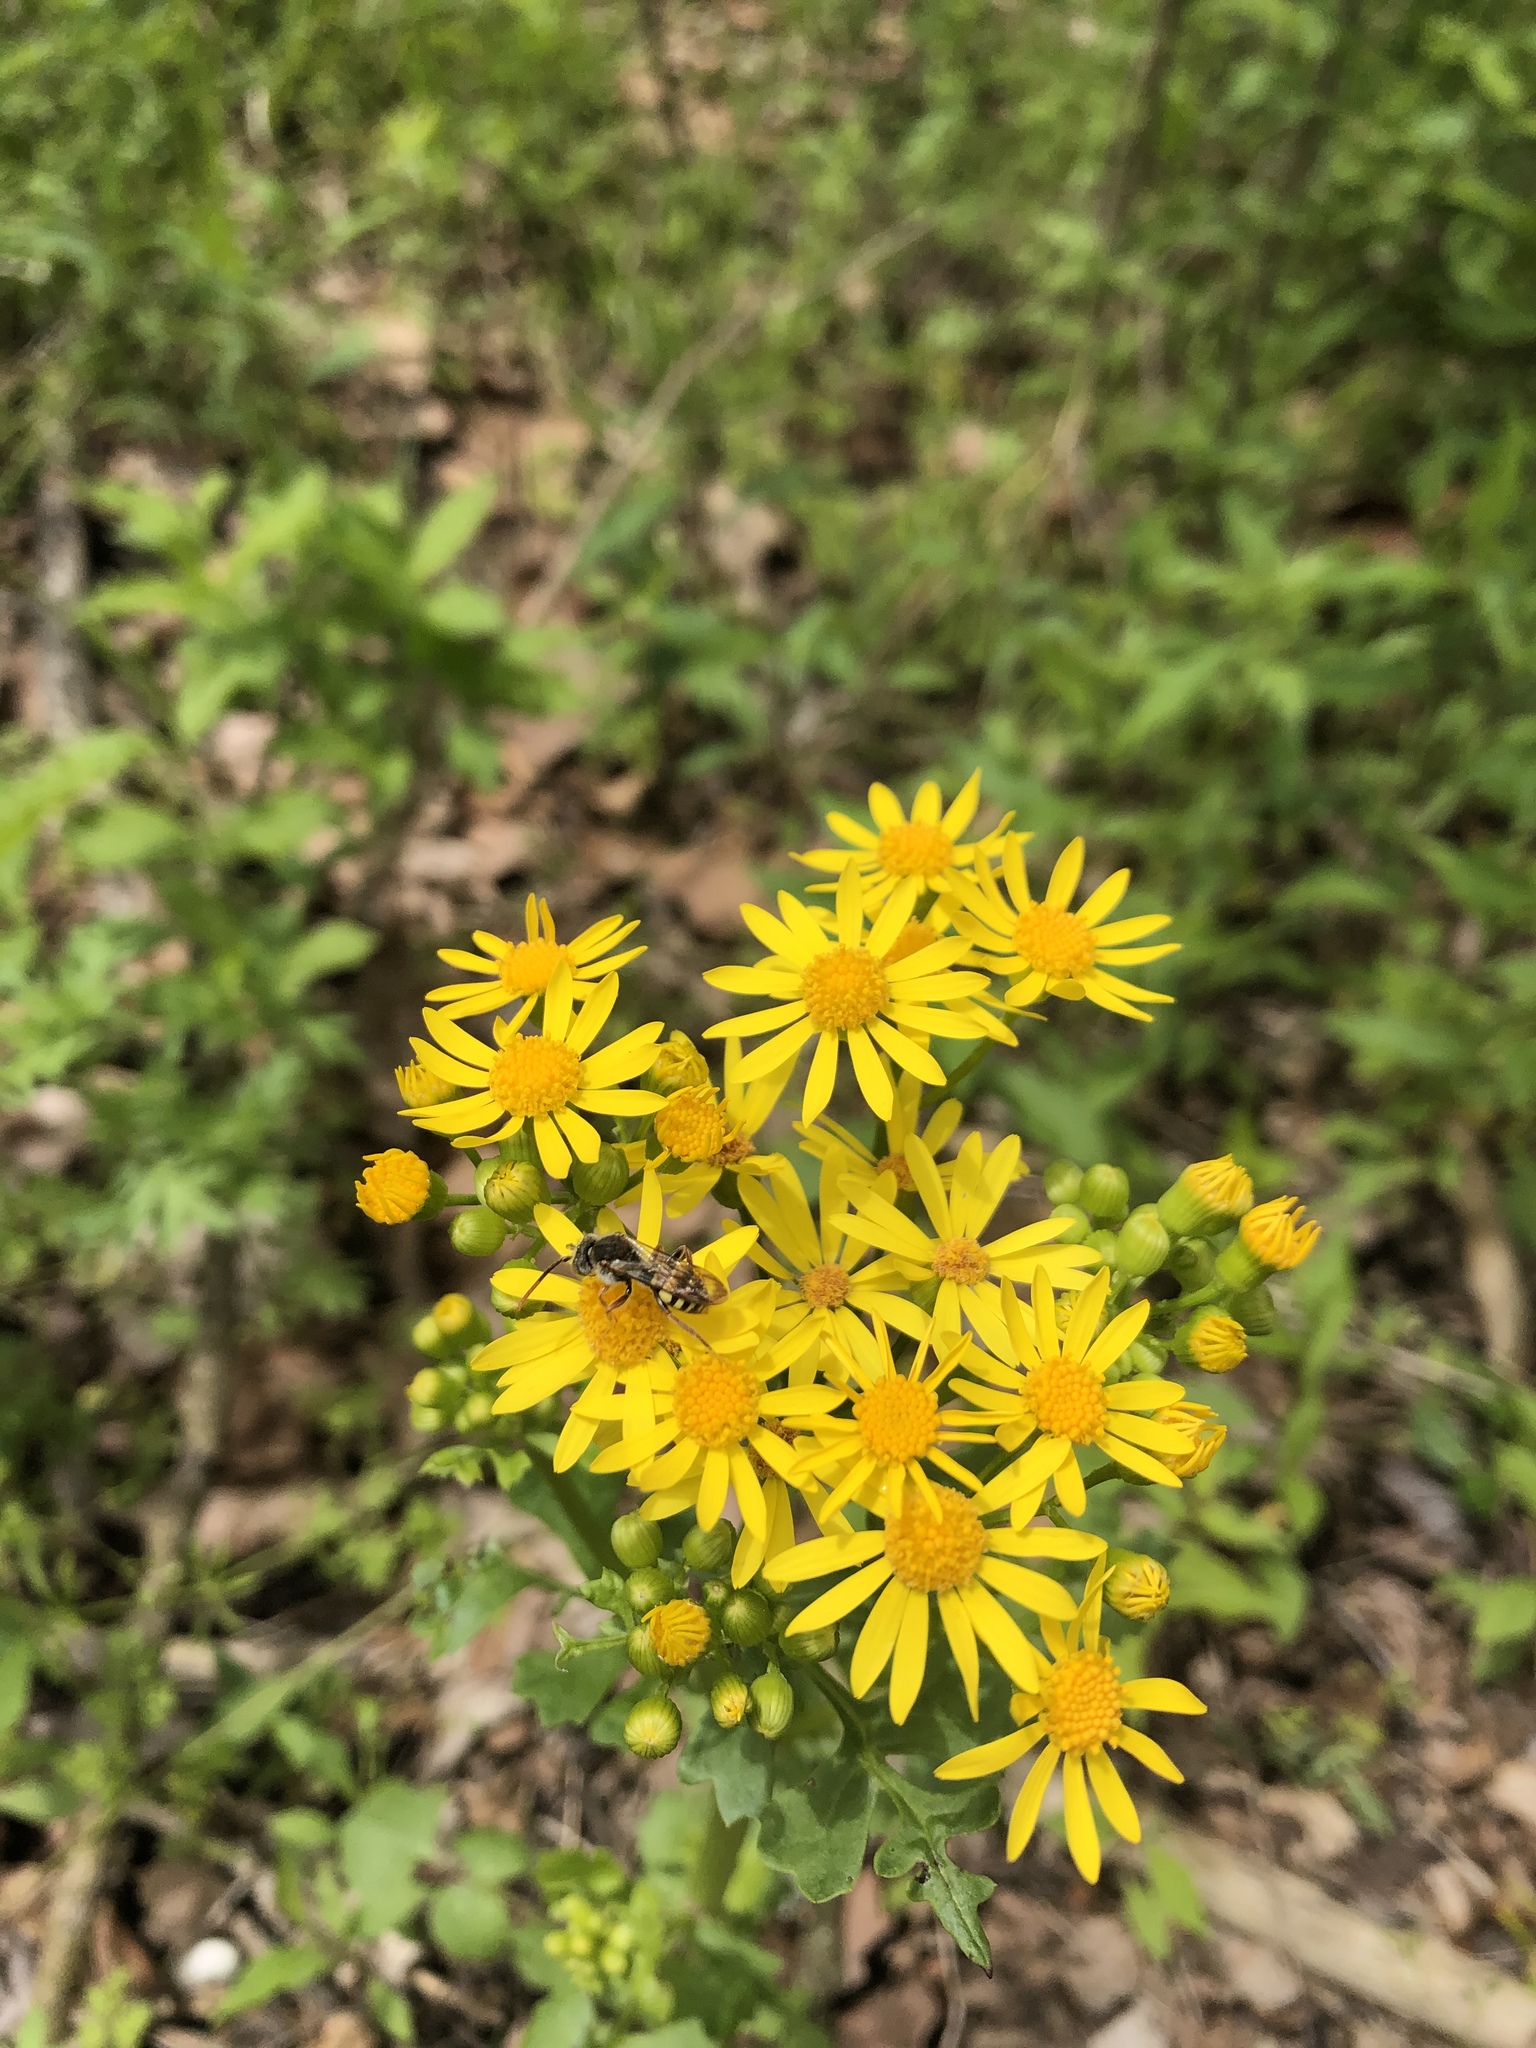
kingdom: Plantae
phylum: Tracheophyta
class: Magnoliopsida
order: Asterales
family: Asteraceae
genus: Packera
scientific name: Packera glabella
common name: Butterweed
